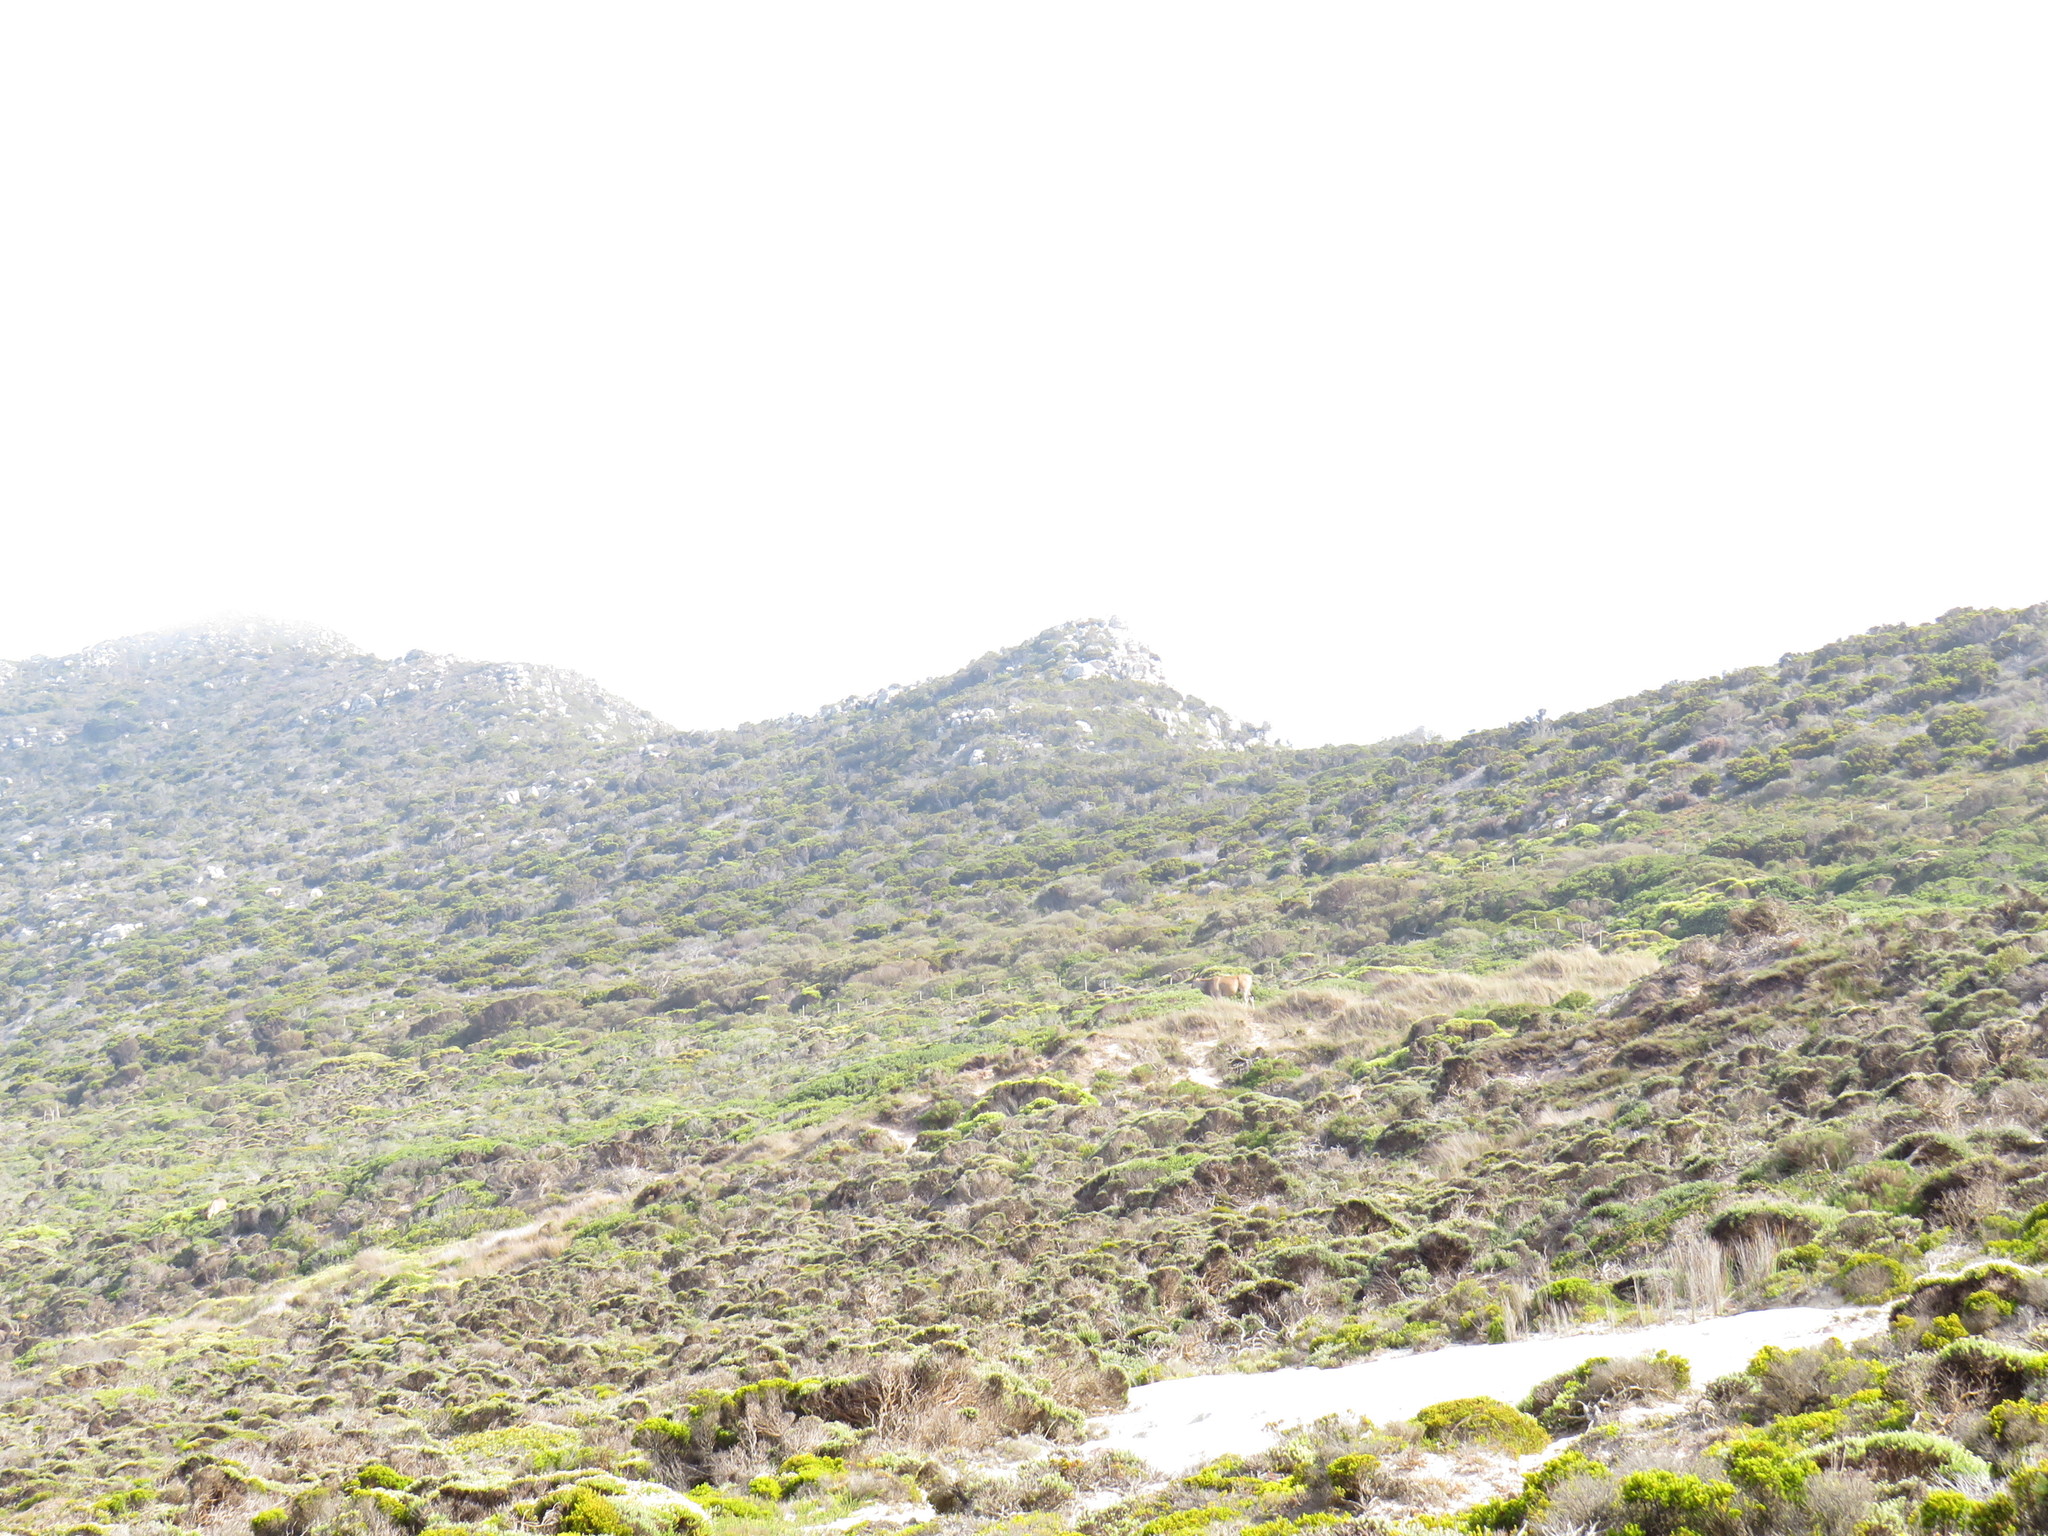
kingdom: Animalia
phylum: Chordata
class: Mammalia
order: Artiodactyla
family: Bovidae
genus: Taurotragus
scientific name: Taurotragus oryx
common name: Common eland
